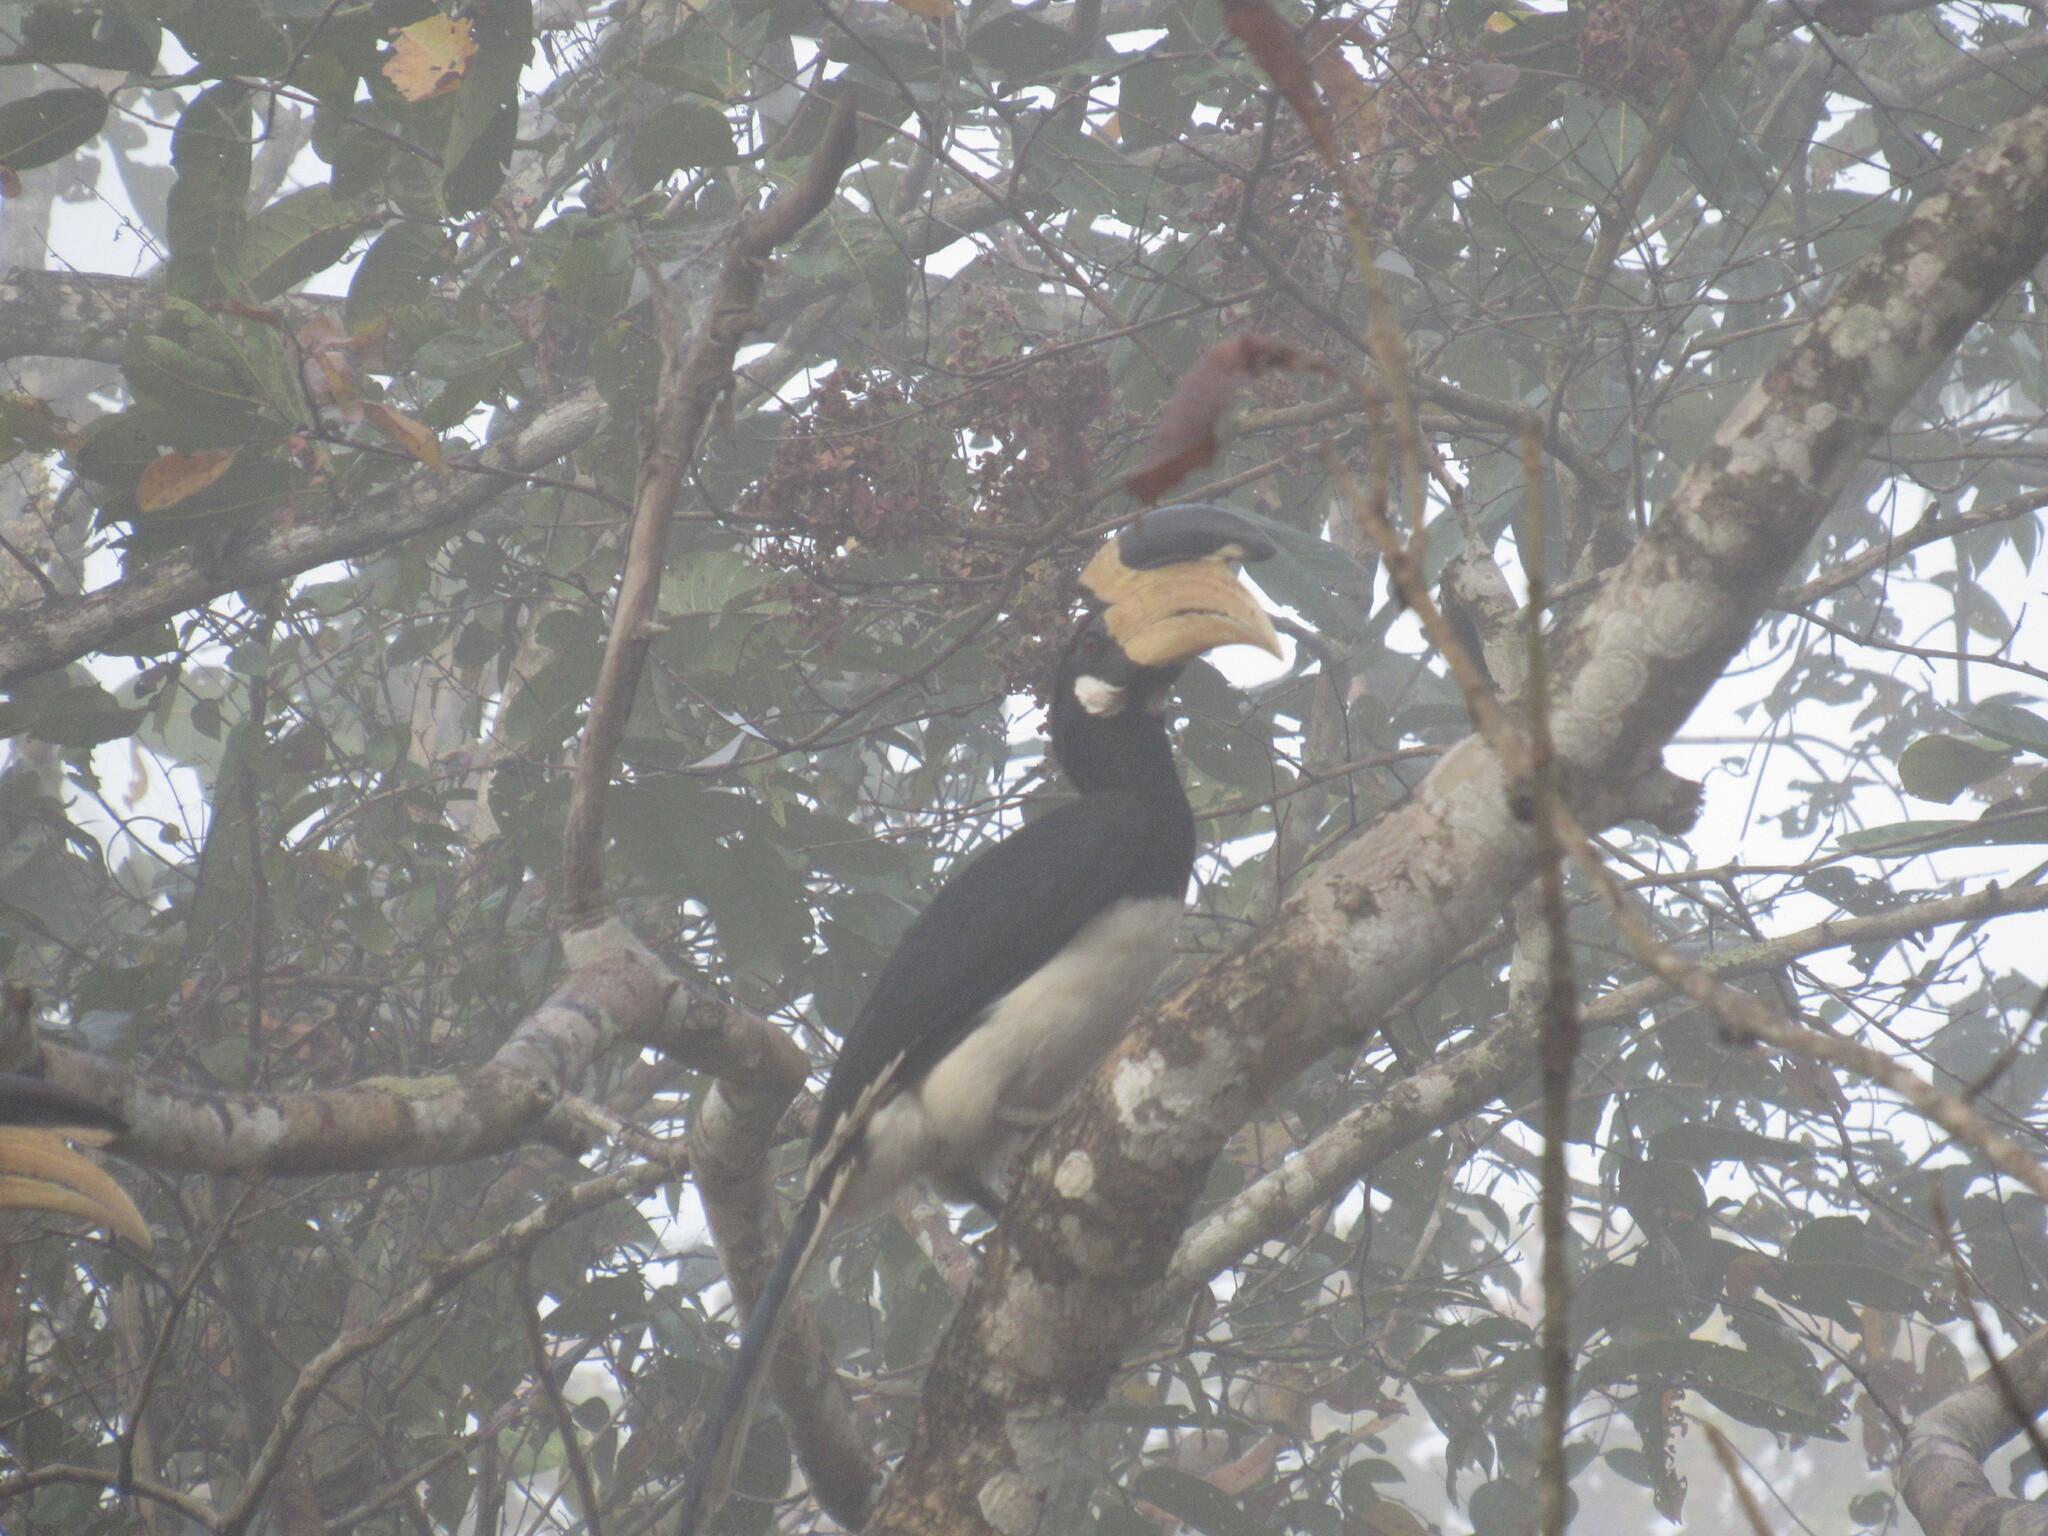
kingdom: Animalia
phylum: Chordata
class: Aves
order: Bucerotiformes
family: Bucerotidae
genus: Anthracoceros
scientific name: Anthracoceros coronatus
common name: Malabar pied hornbill
